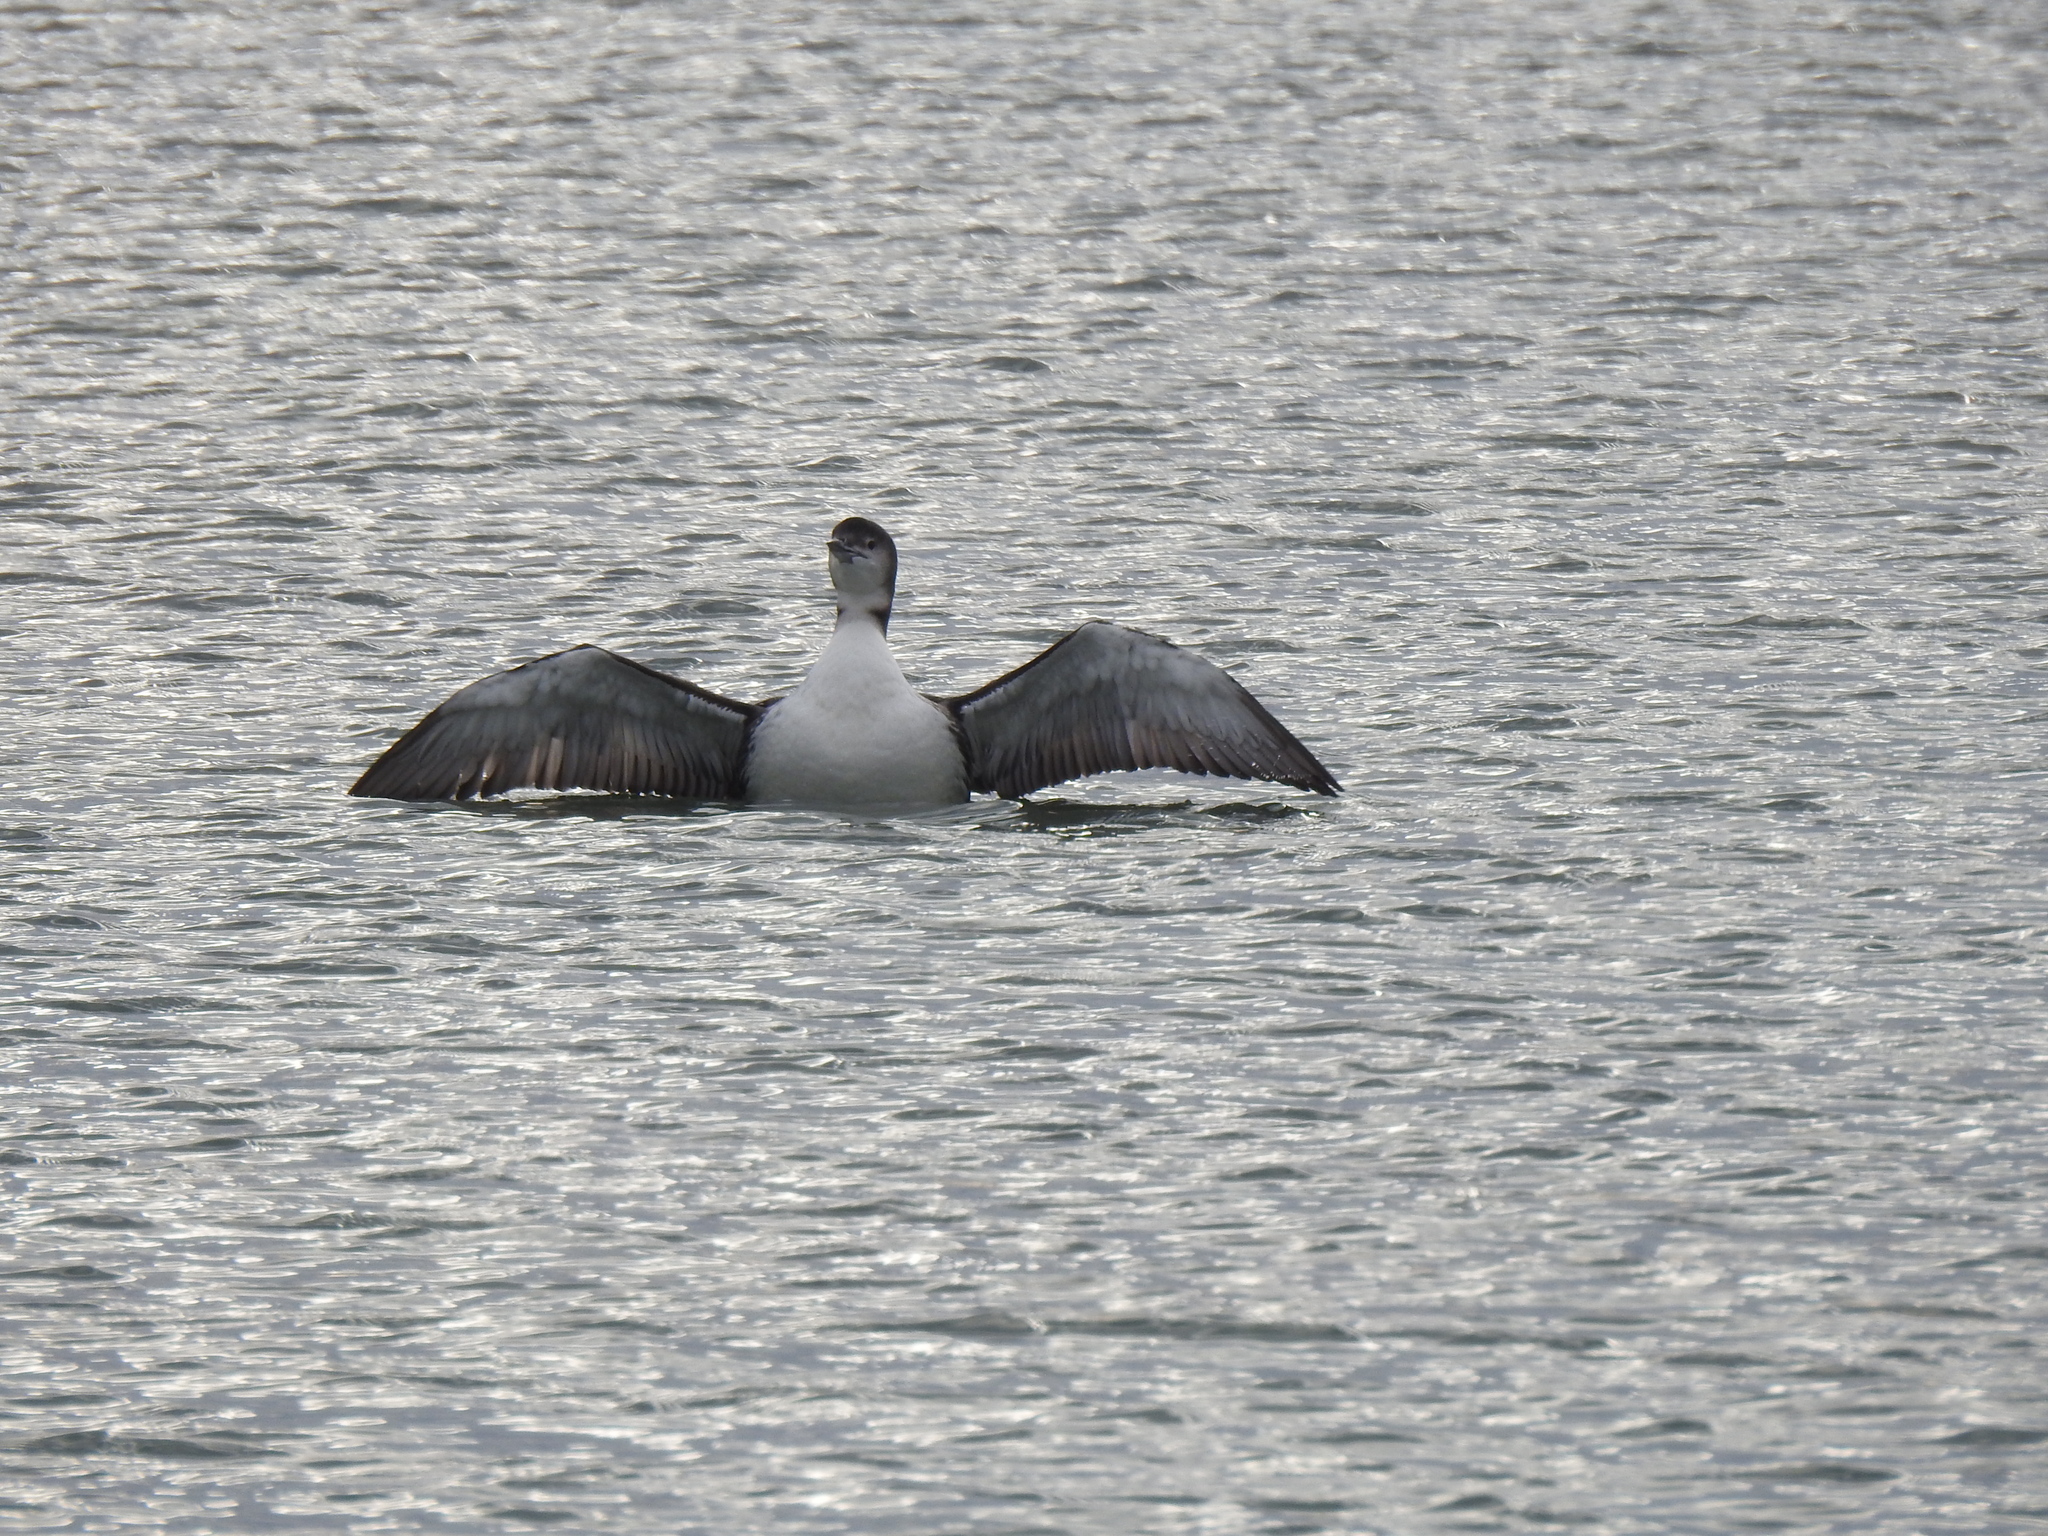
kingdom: Animalia
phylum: Chordata
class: Aves
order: Gaviiformes
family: Gaviidae
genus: Gavia
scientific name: Gavia immer
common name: Common loon
